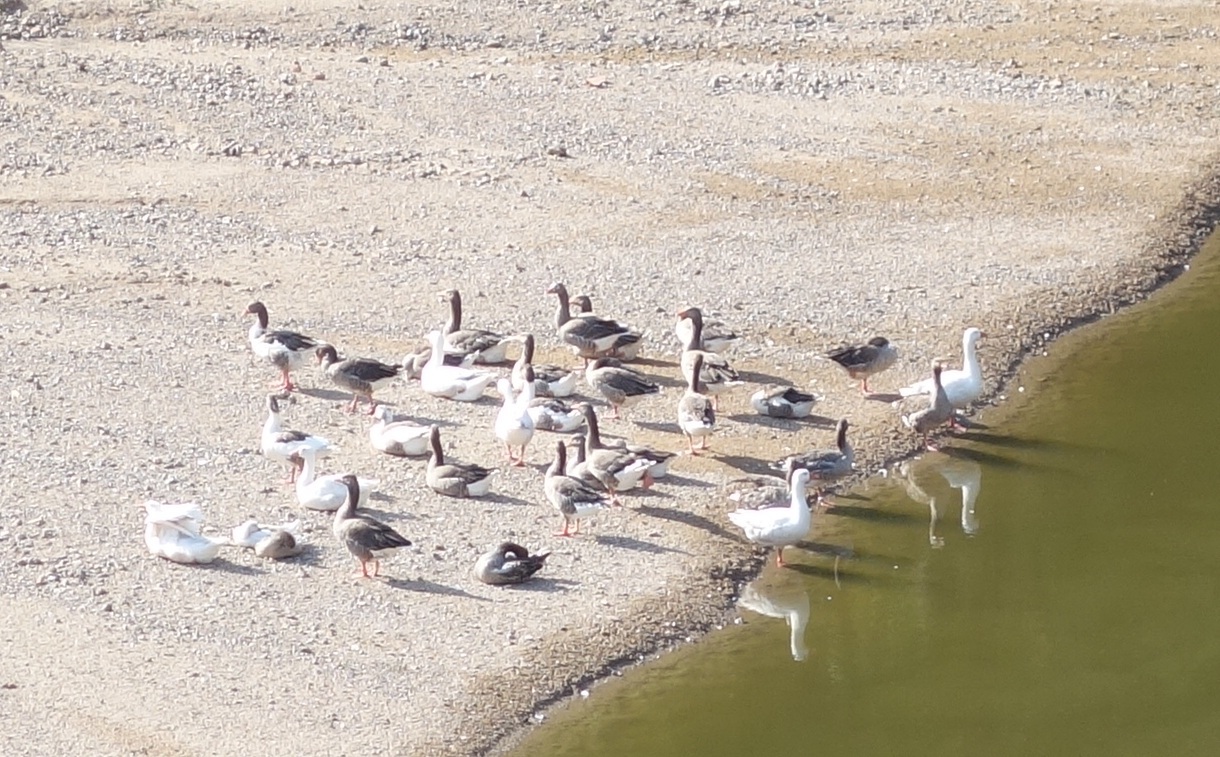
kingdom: Animalia
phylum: Chordata
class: Aves
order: Anseriformes
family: Anatidae
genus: Anser
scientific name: Anser anser
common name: Greylag goose
